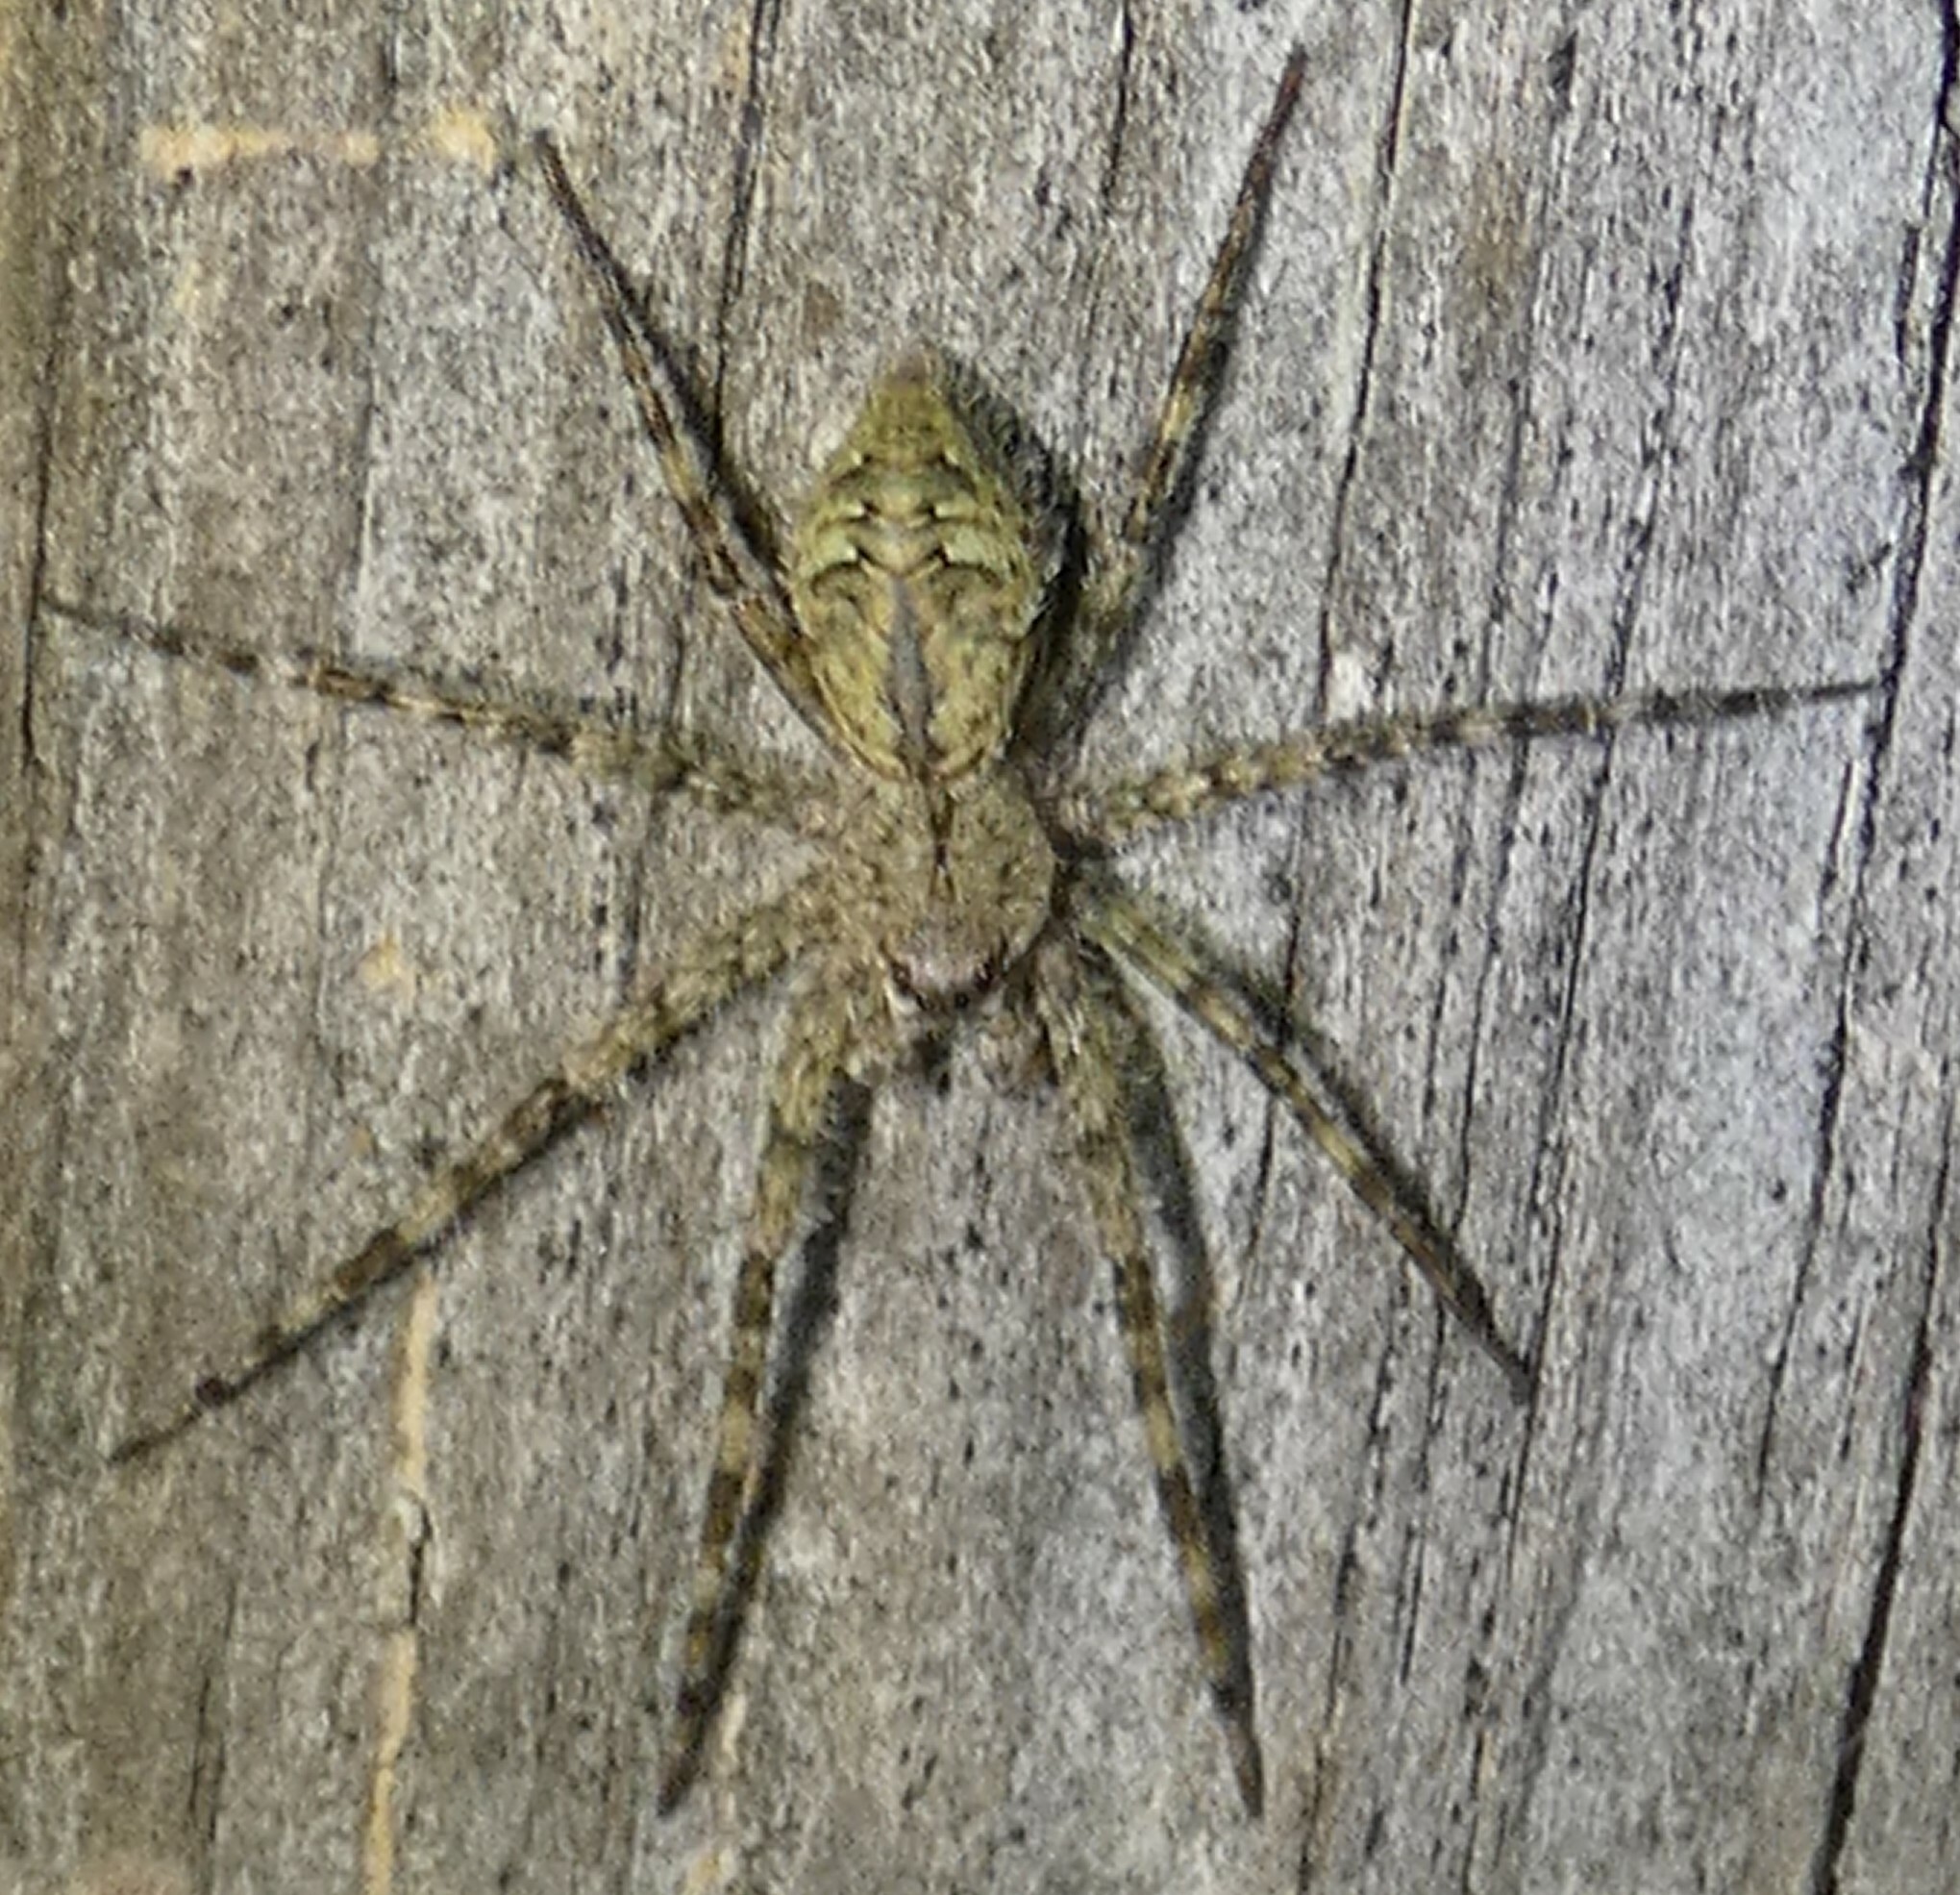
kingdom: Animalia
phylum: Arthropoda
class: Arachnida
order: Araneae
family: Pisauridae
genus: Dolomedes
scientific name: Dolomedes albineus
